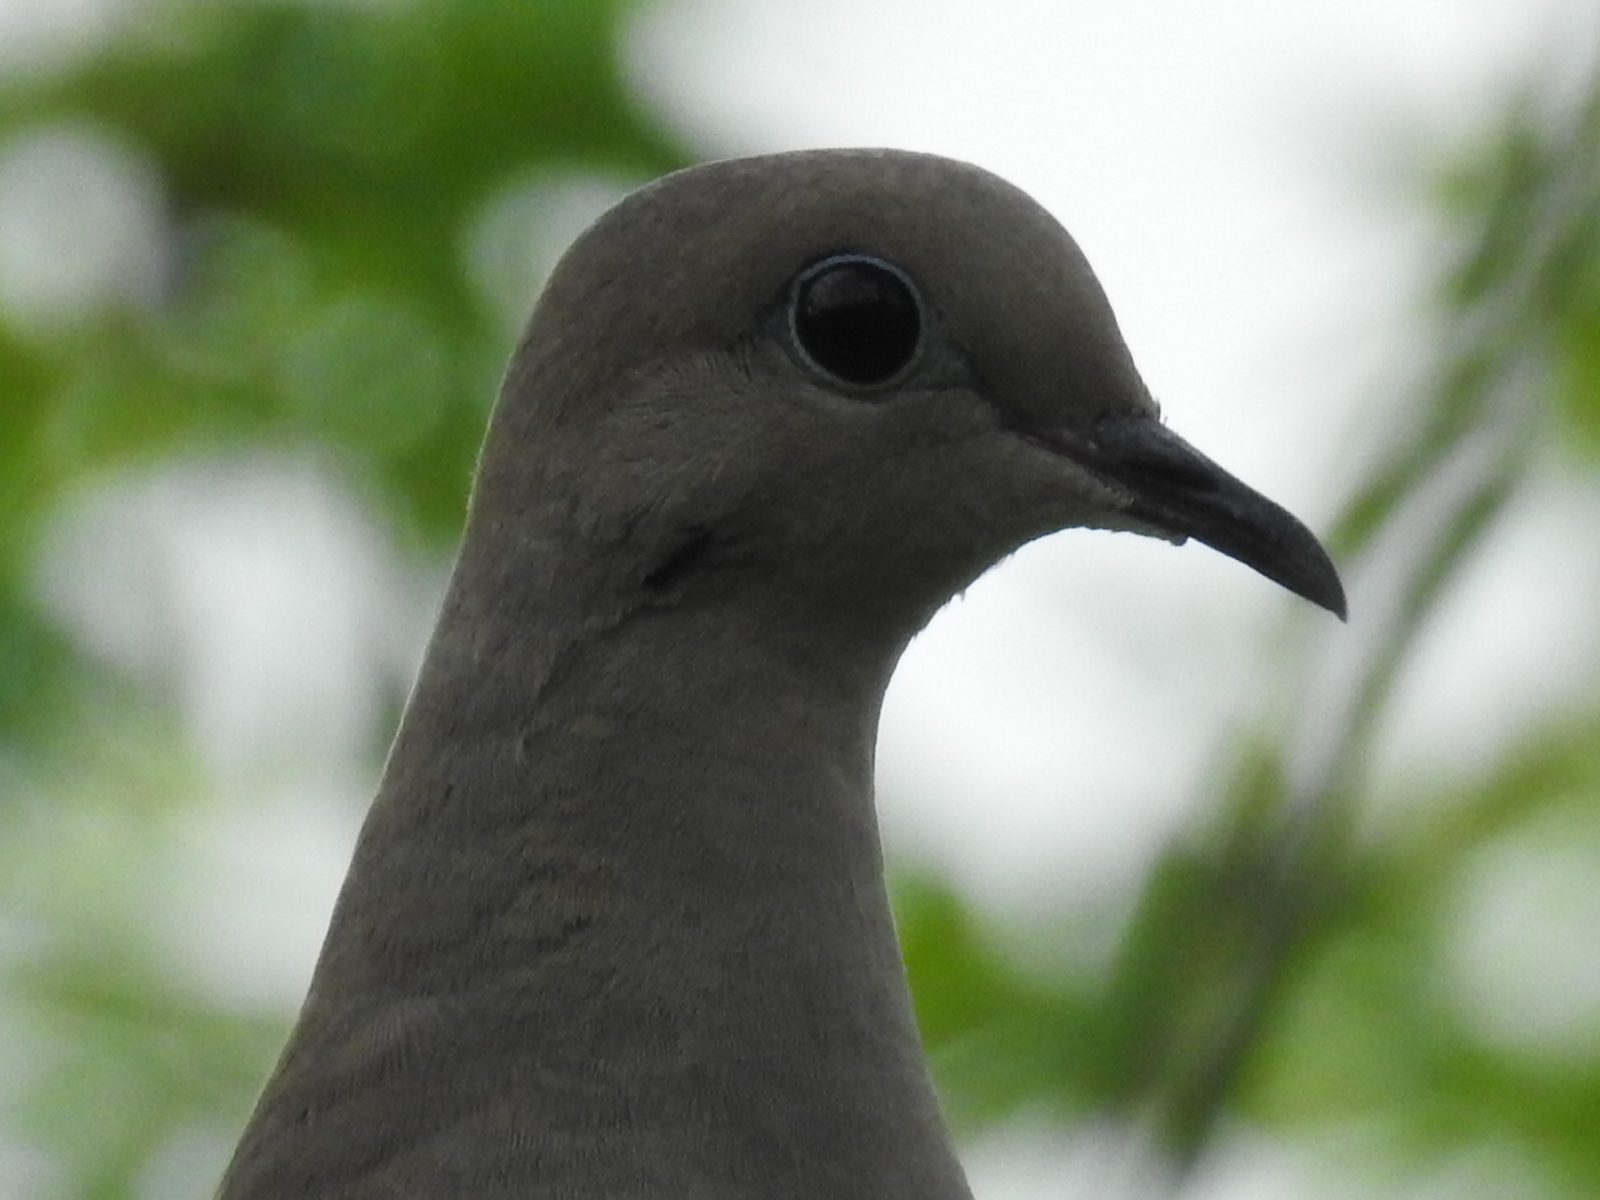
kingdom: Animalia
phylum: Chordata
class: Aves
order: Columbiformes
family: Columbidae
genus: Zenaida
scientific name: Zenaida macroura
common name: Mourning dove
